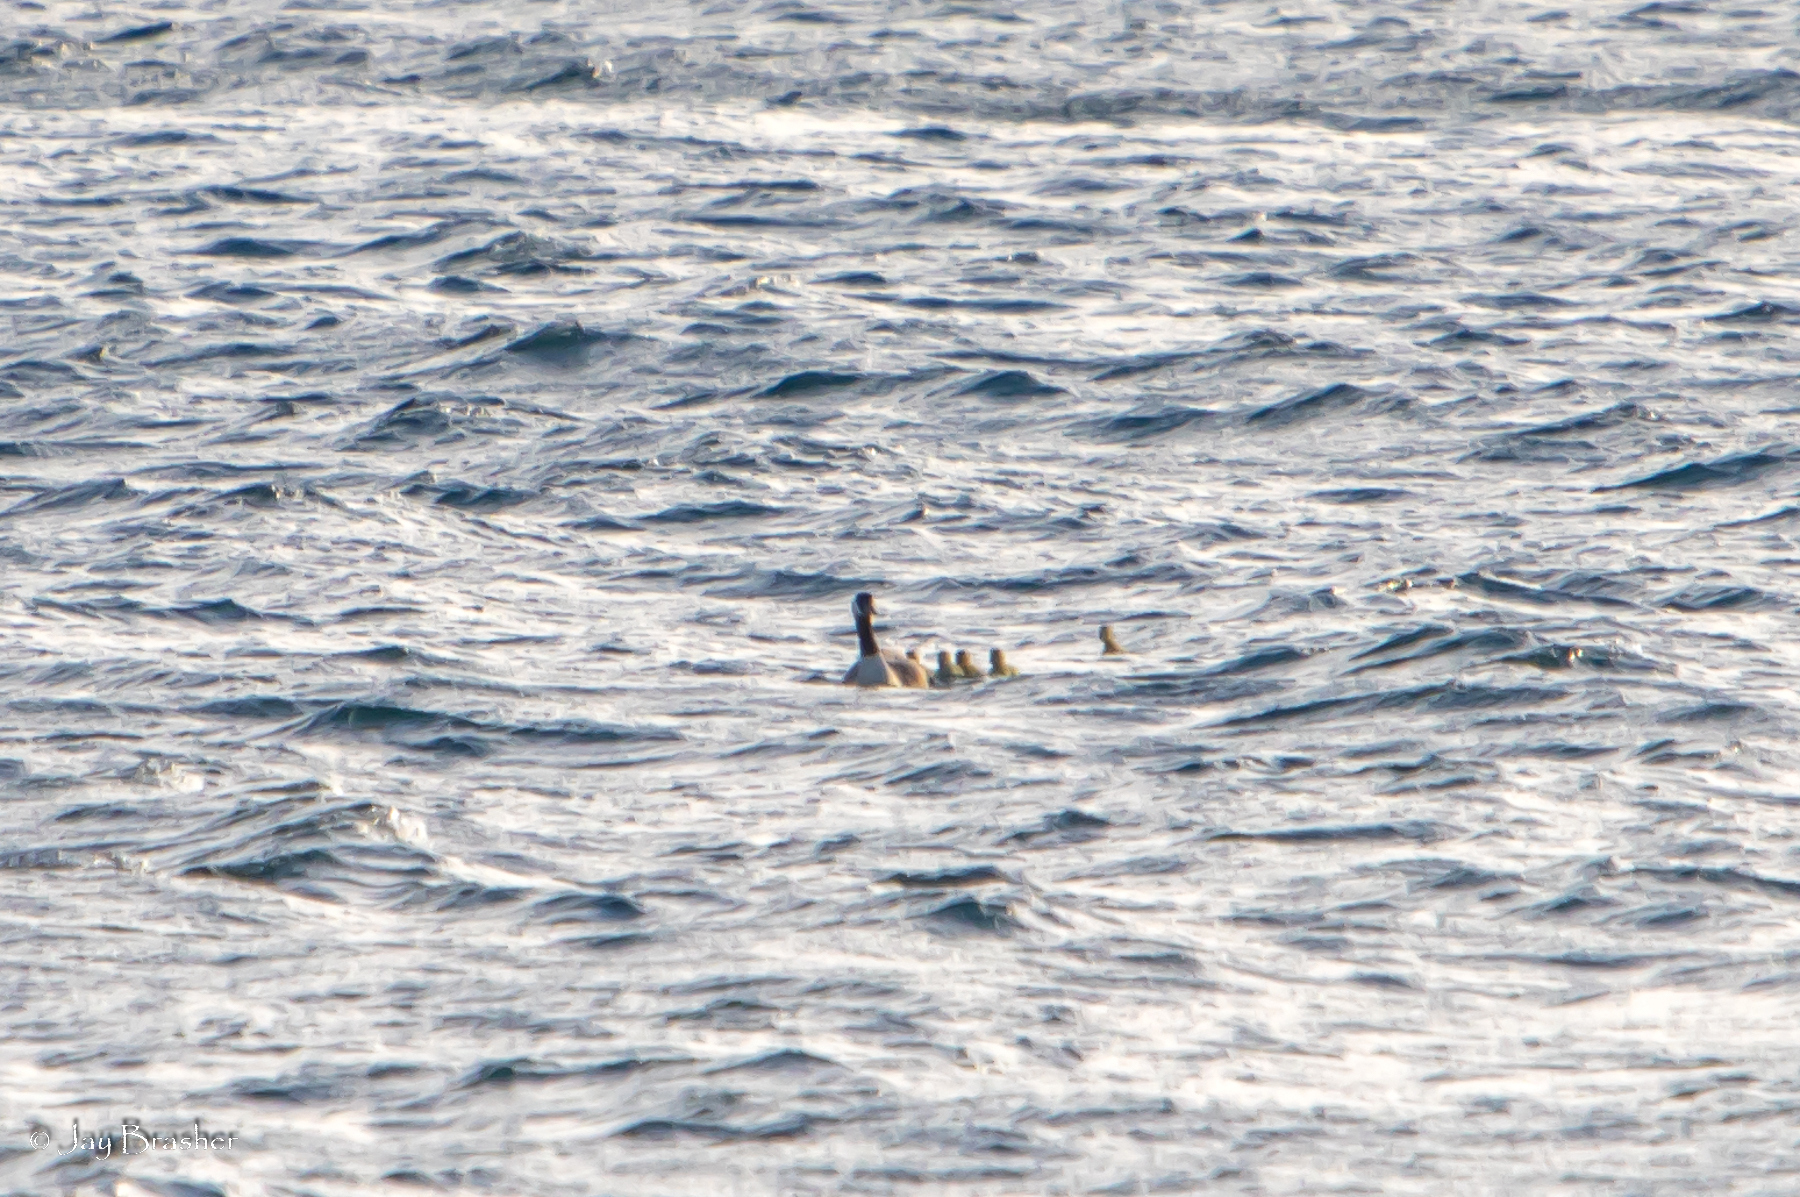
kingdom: Animalia
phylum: Chordata
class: Aves
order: Anseriformes
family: Anatidae
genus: Branta
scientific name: Branta canadensis
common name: Canada goose
